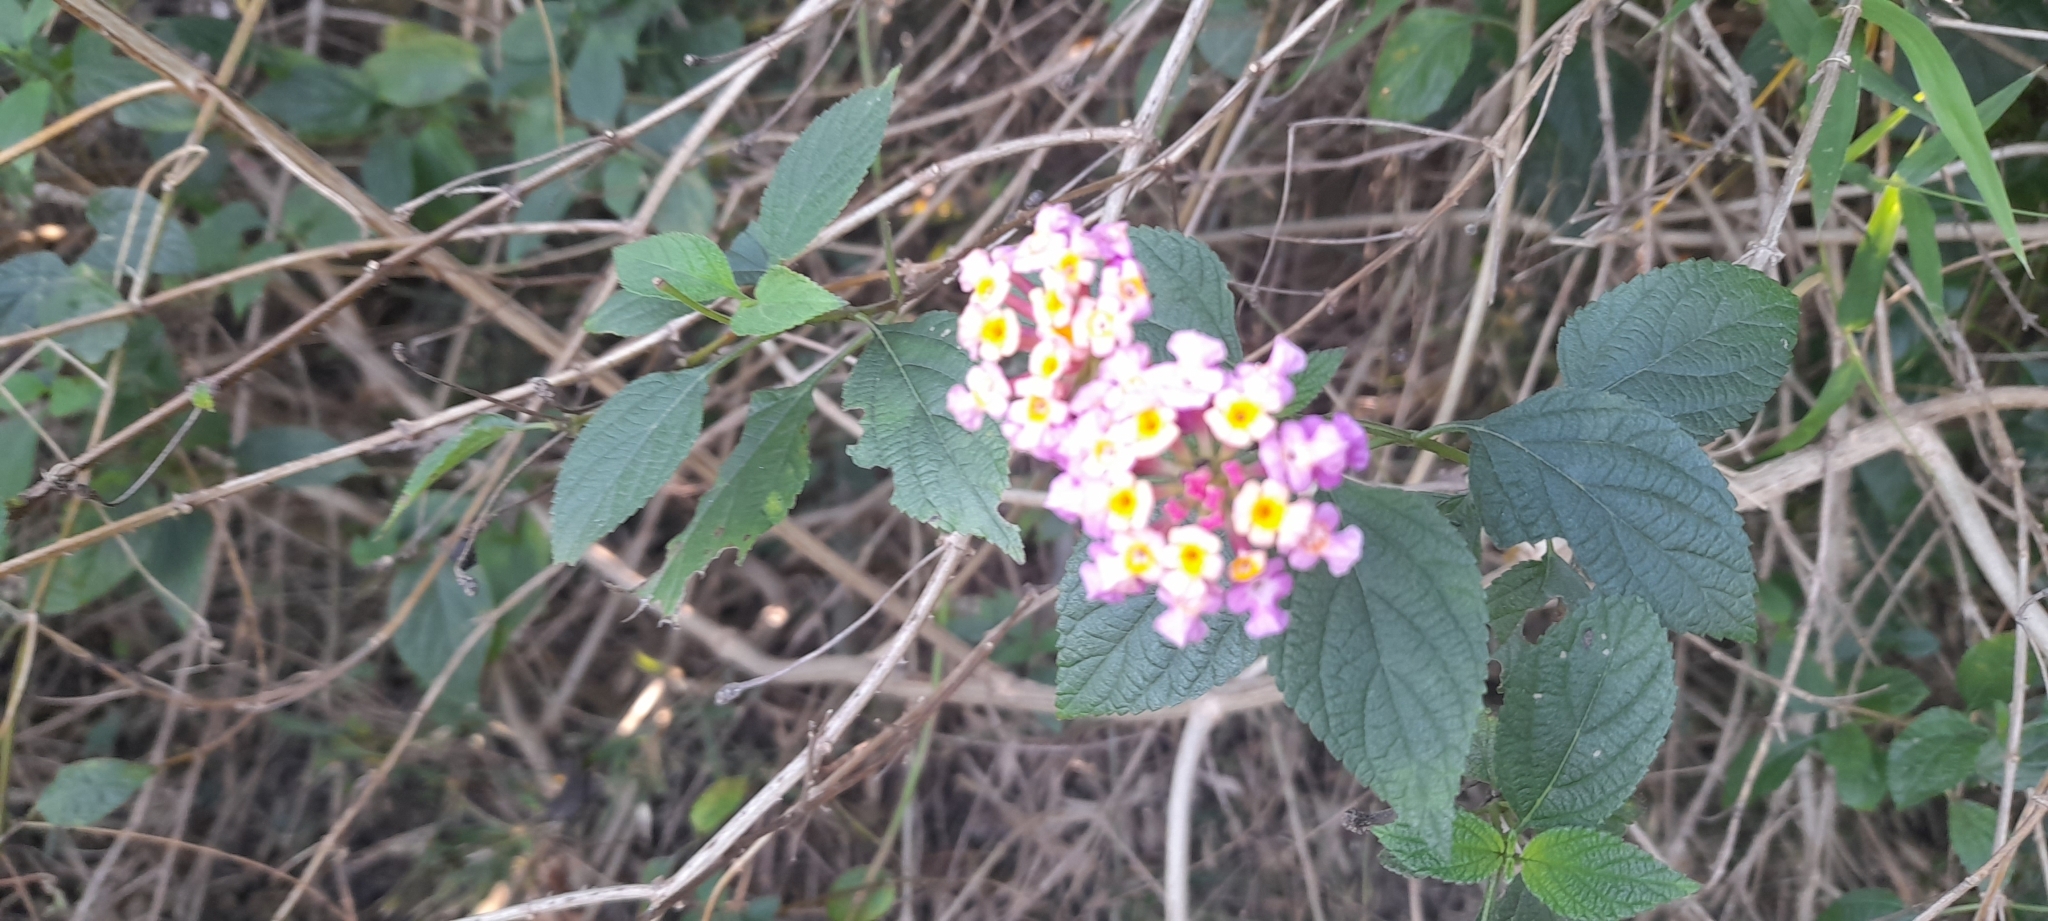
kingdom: Plantae
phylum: Tracheophyta
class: Magnoliopsida
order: Lamiales
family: Verbenaceae
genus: Lantana
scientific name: Lantana camara
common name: Lantana
